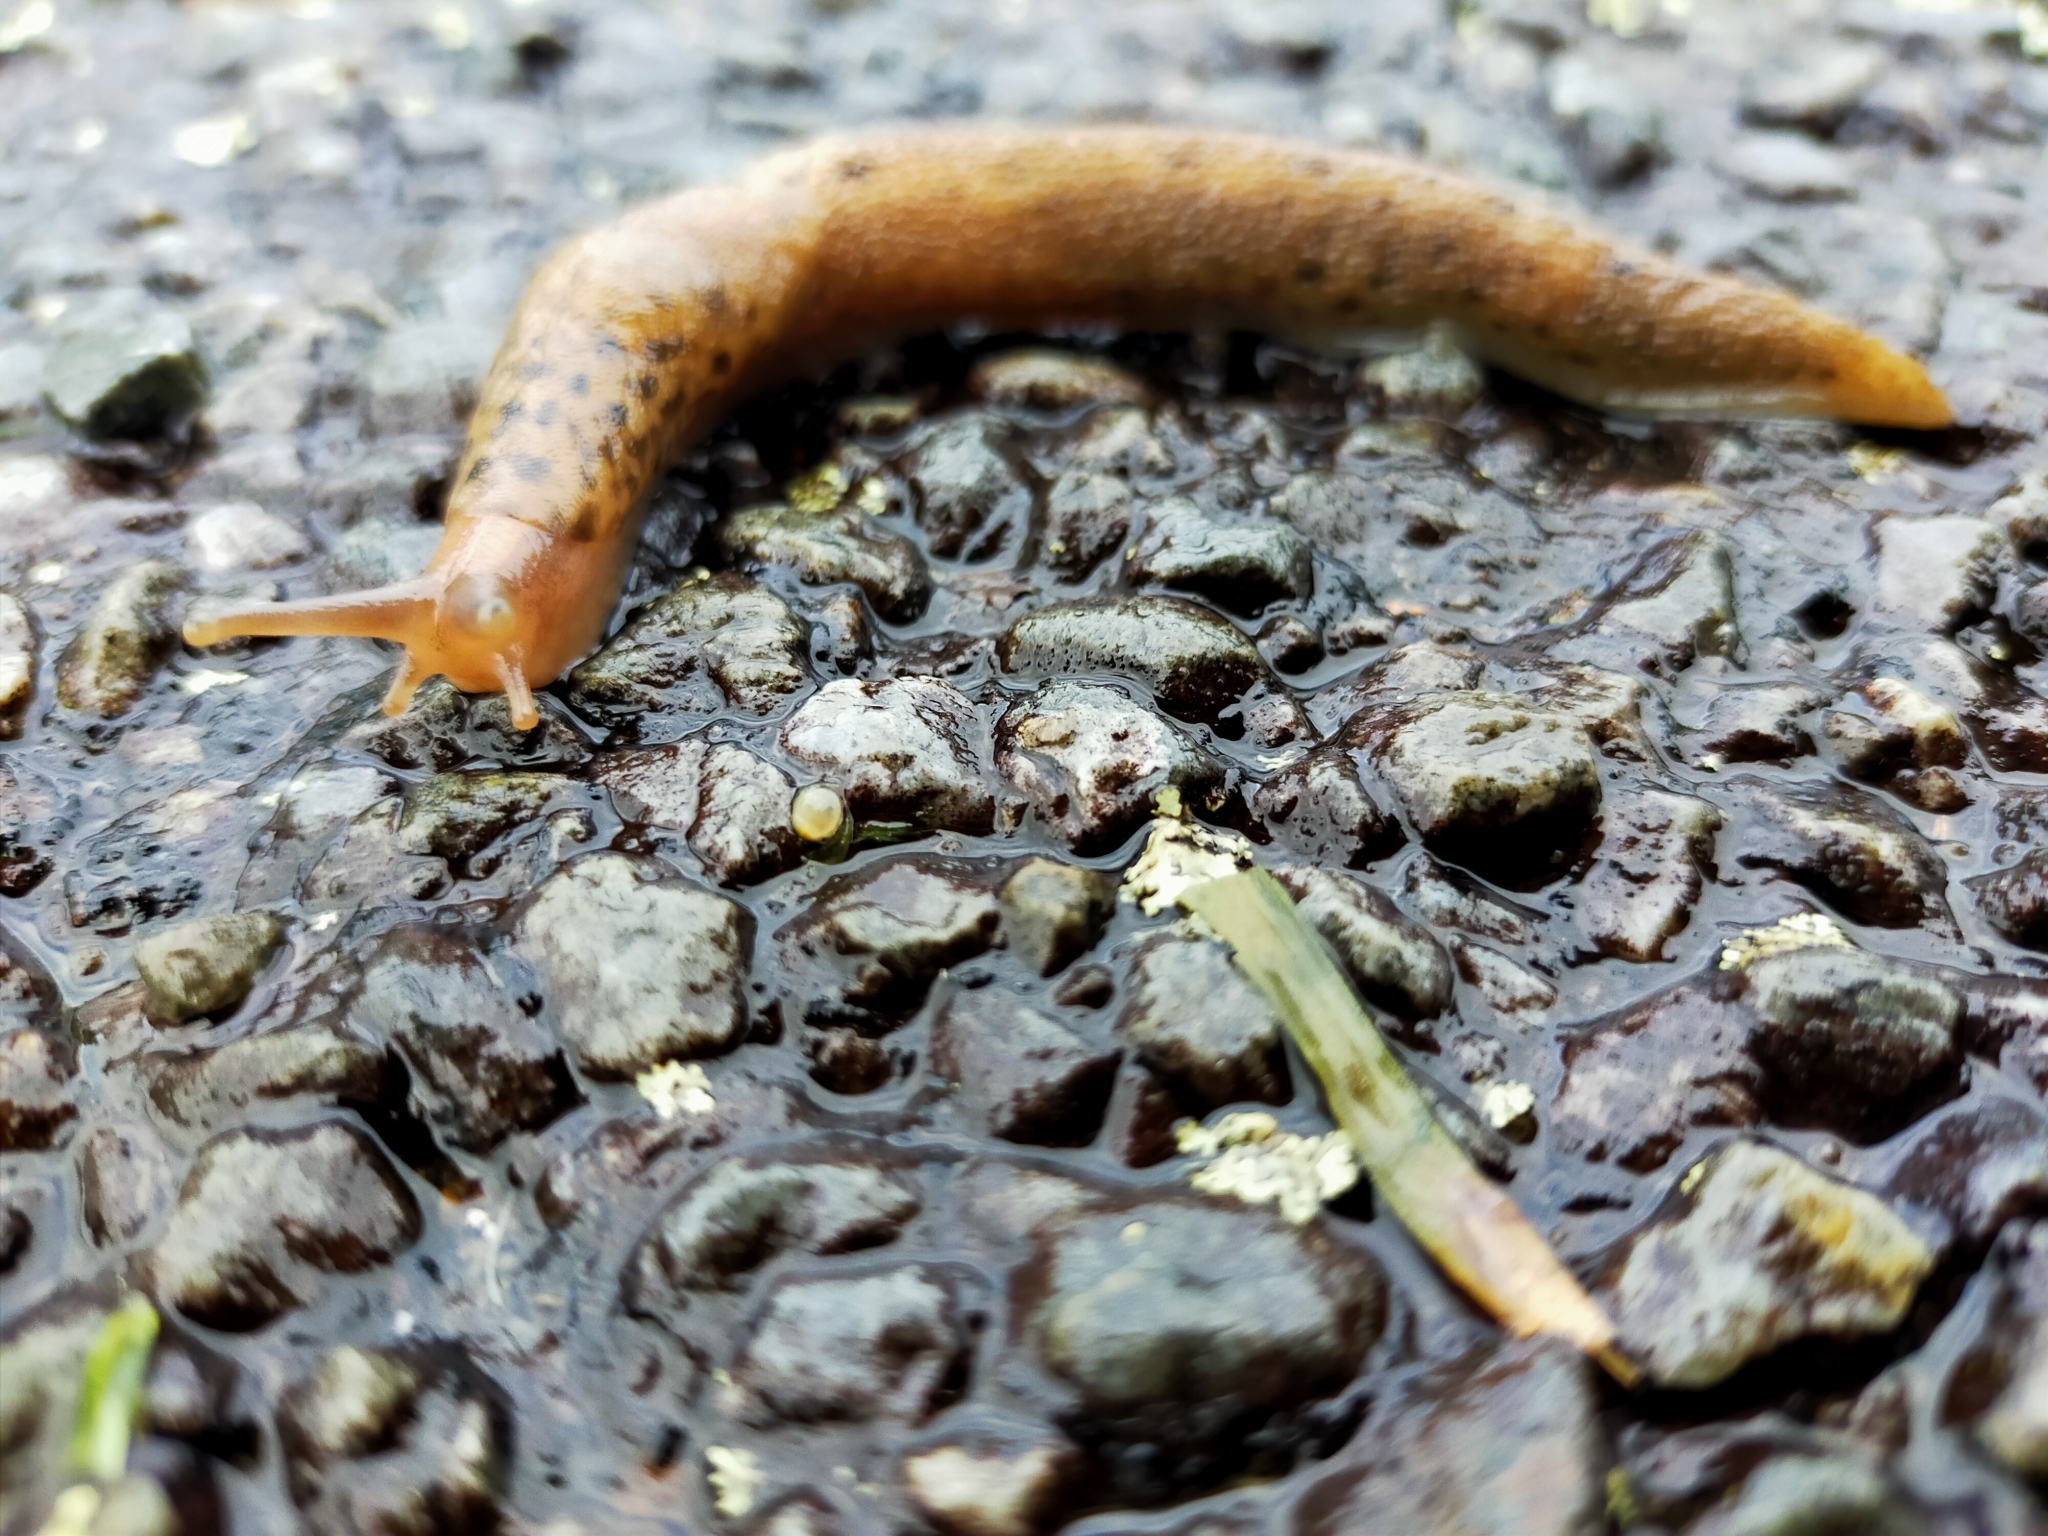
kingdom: Animalia
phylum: Mollusca
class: Gastropoda
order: Stylommatophora
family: Limacidae
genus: Limax
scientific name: Limax maximus
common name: Great grey slug
